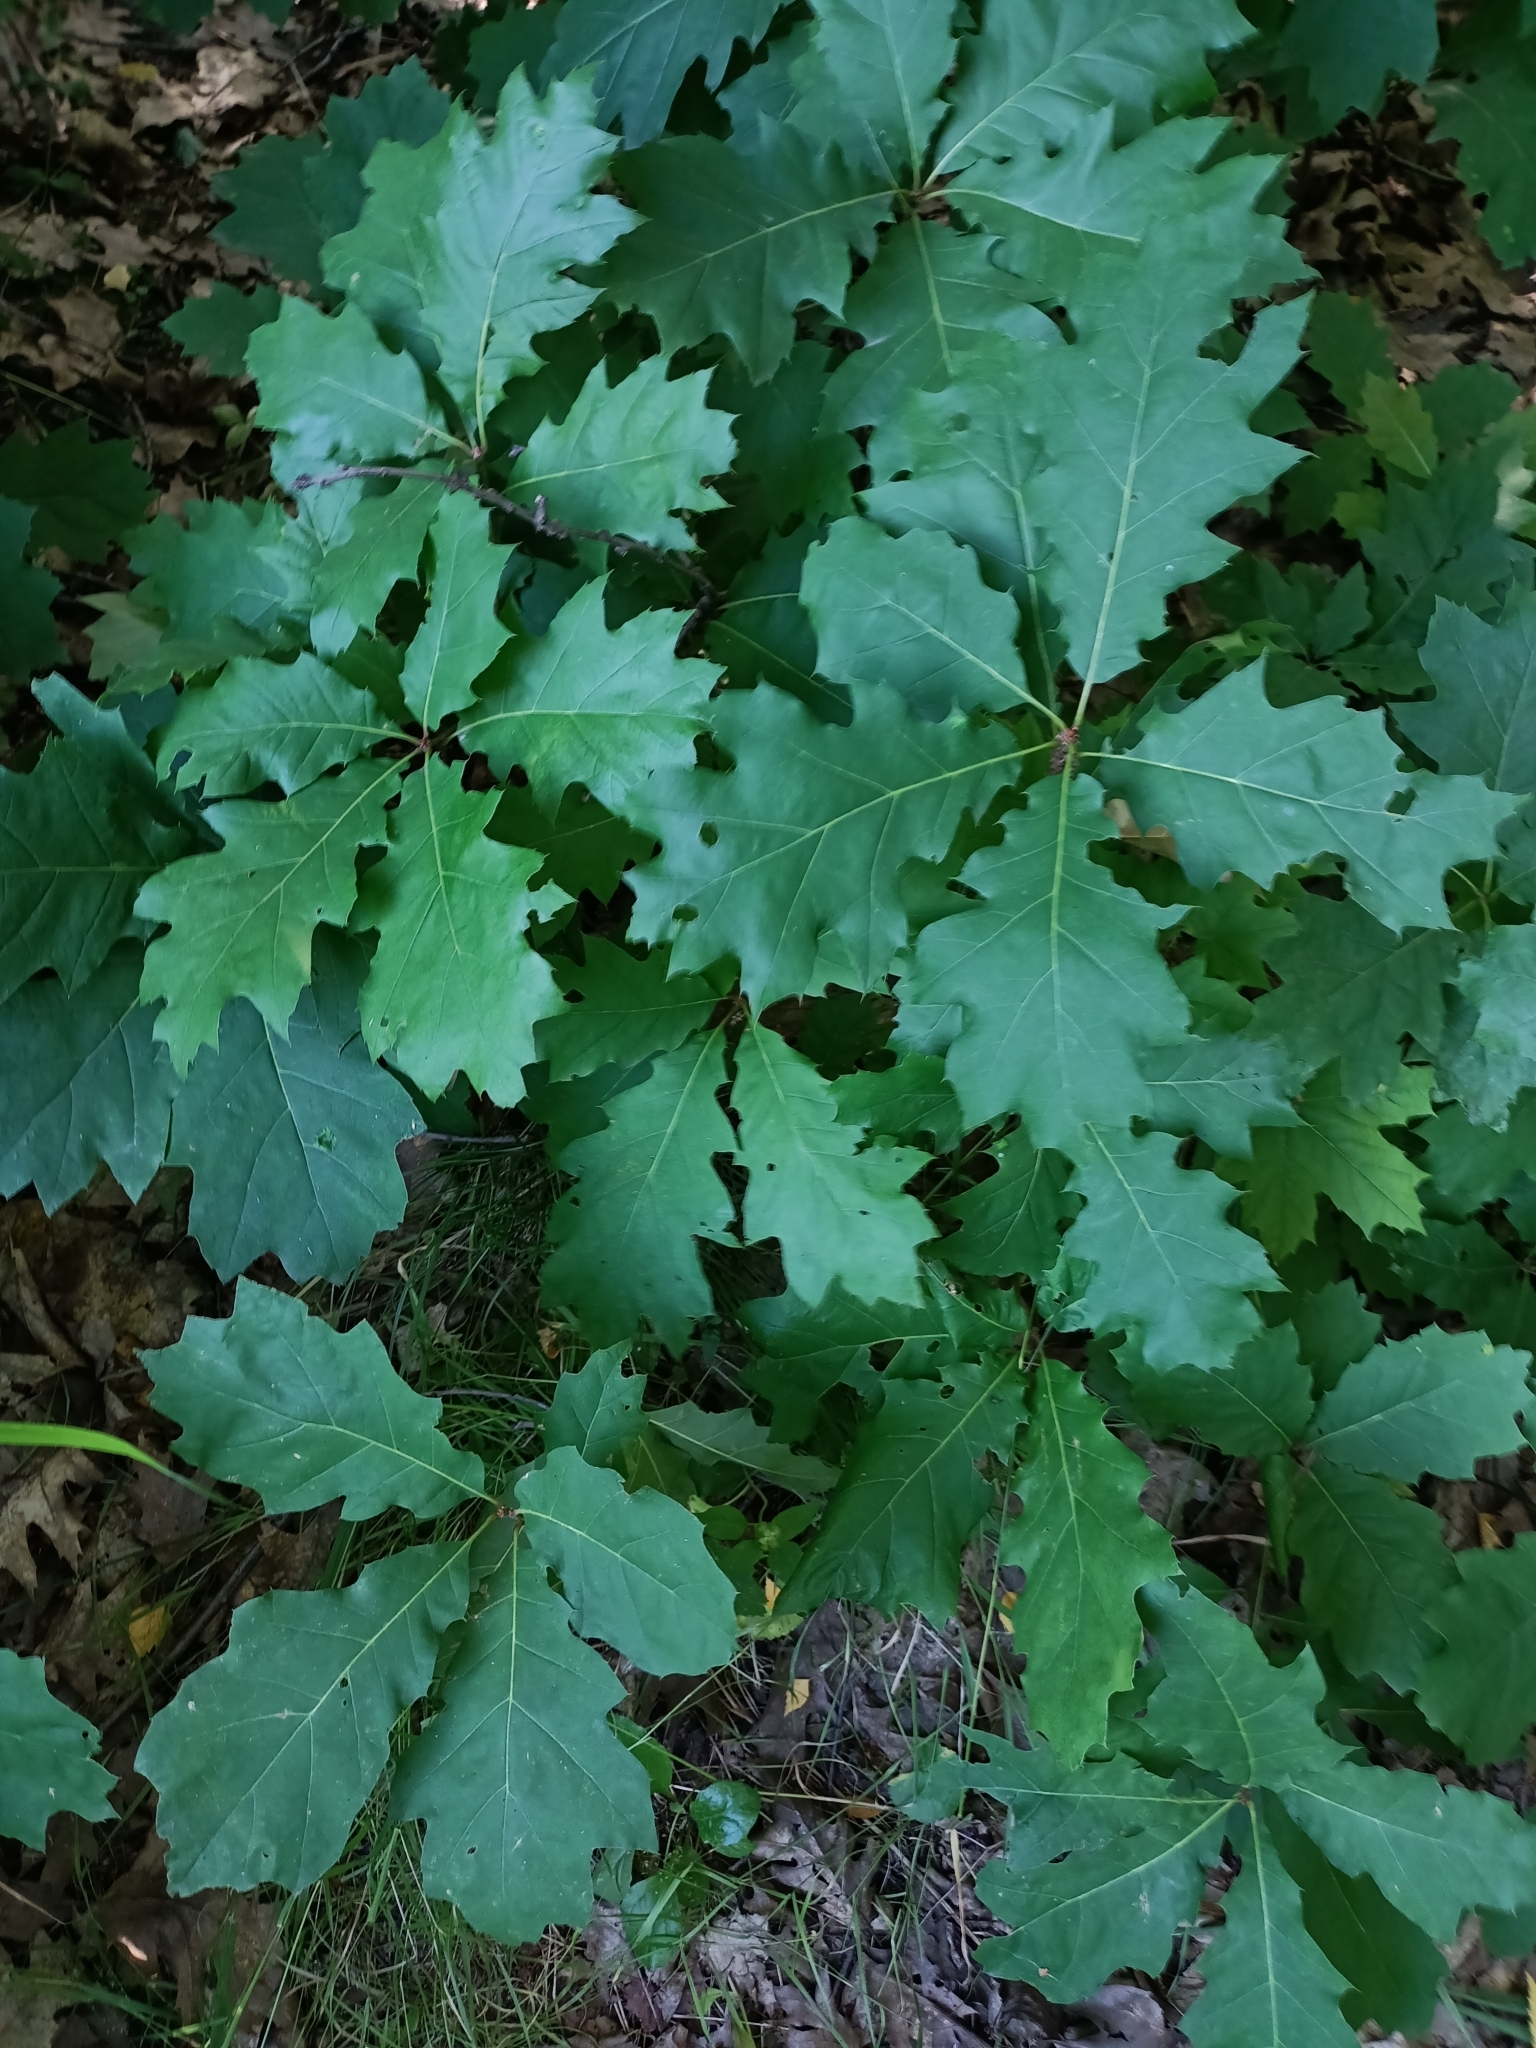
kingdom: Plantae
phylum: Tracheophyta
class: Magnoliopsida
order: Fagales
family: Fagaceae
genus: Quercus
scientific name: Quercus rubra
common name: Red oak
